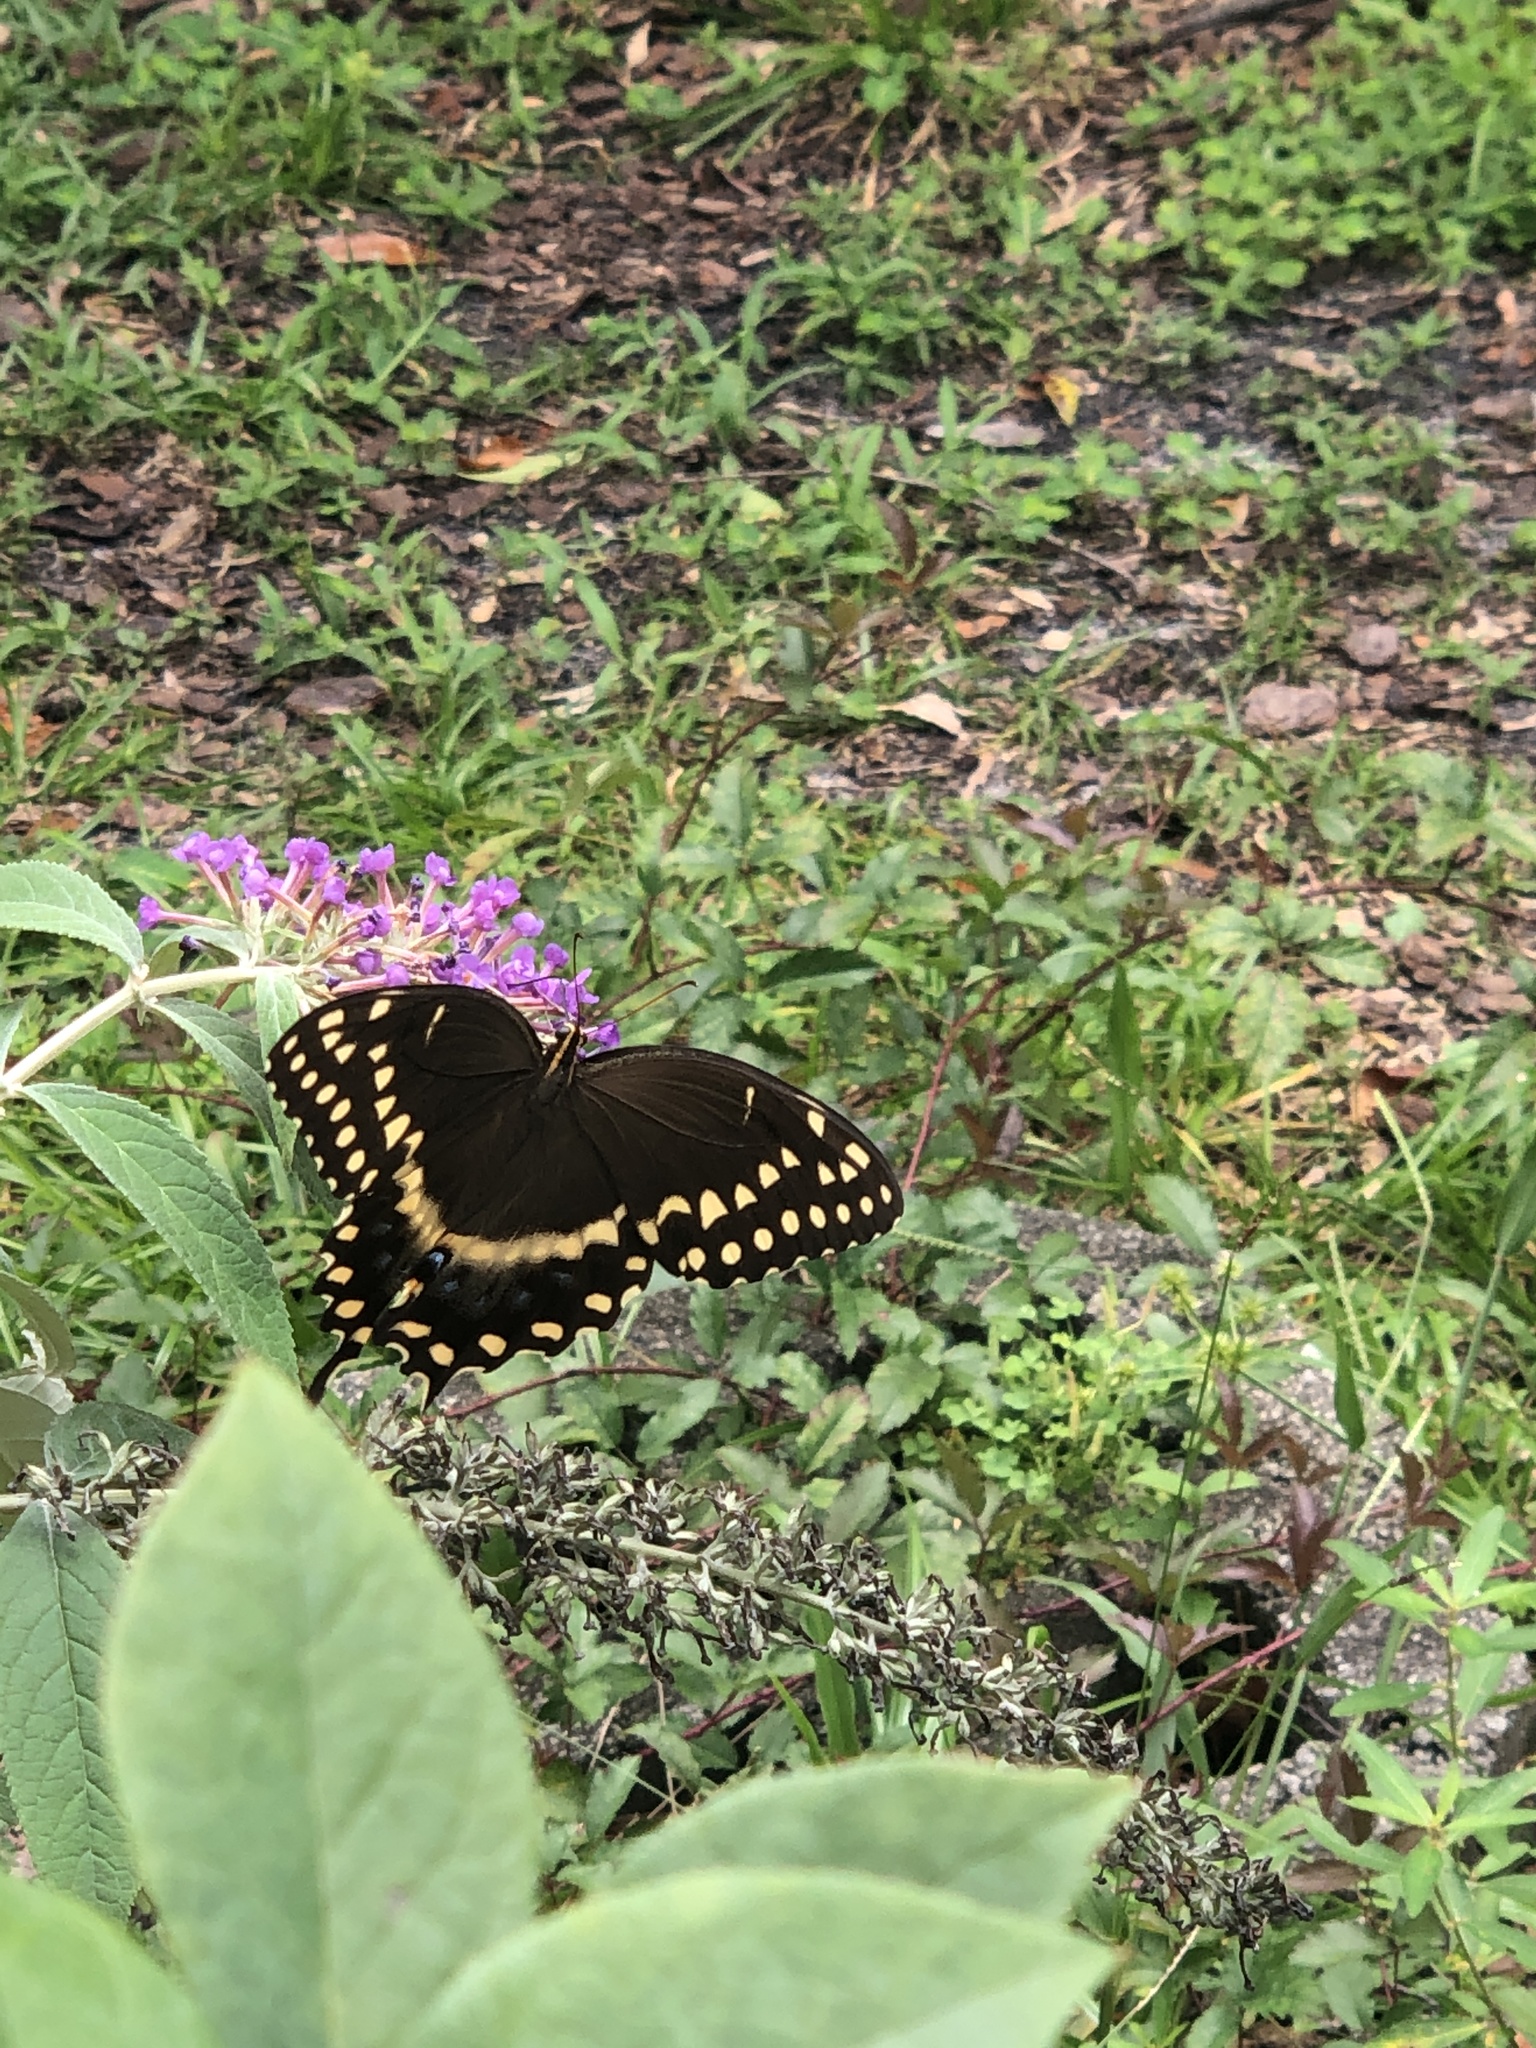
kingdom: Animalia
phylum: Arthropoda
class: Insecta
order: Lepidoptera
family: Papilionidae
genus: Papilio
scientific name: Papilio palamedes
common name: Palamedes swallowtail
